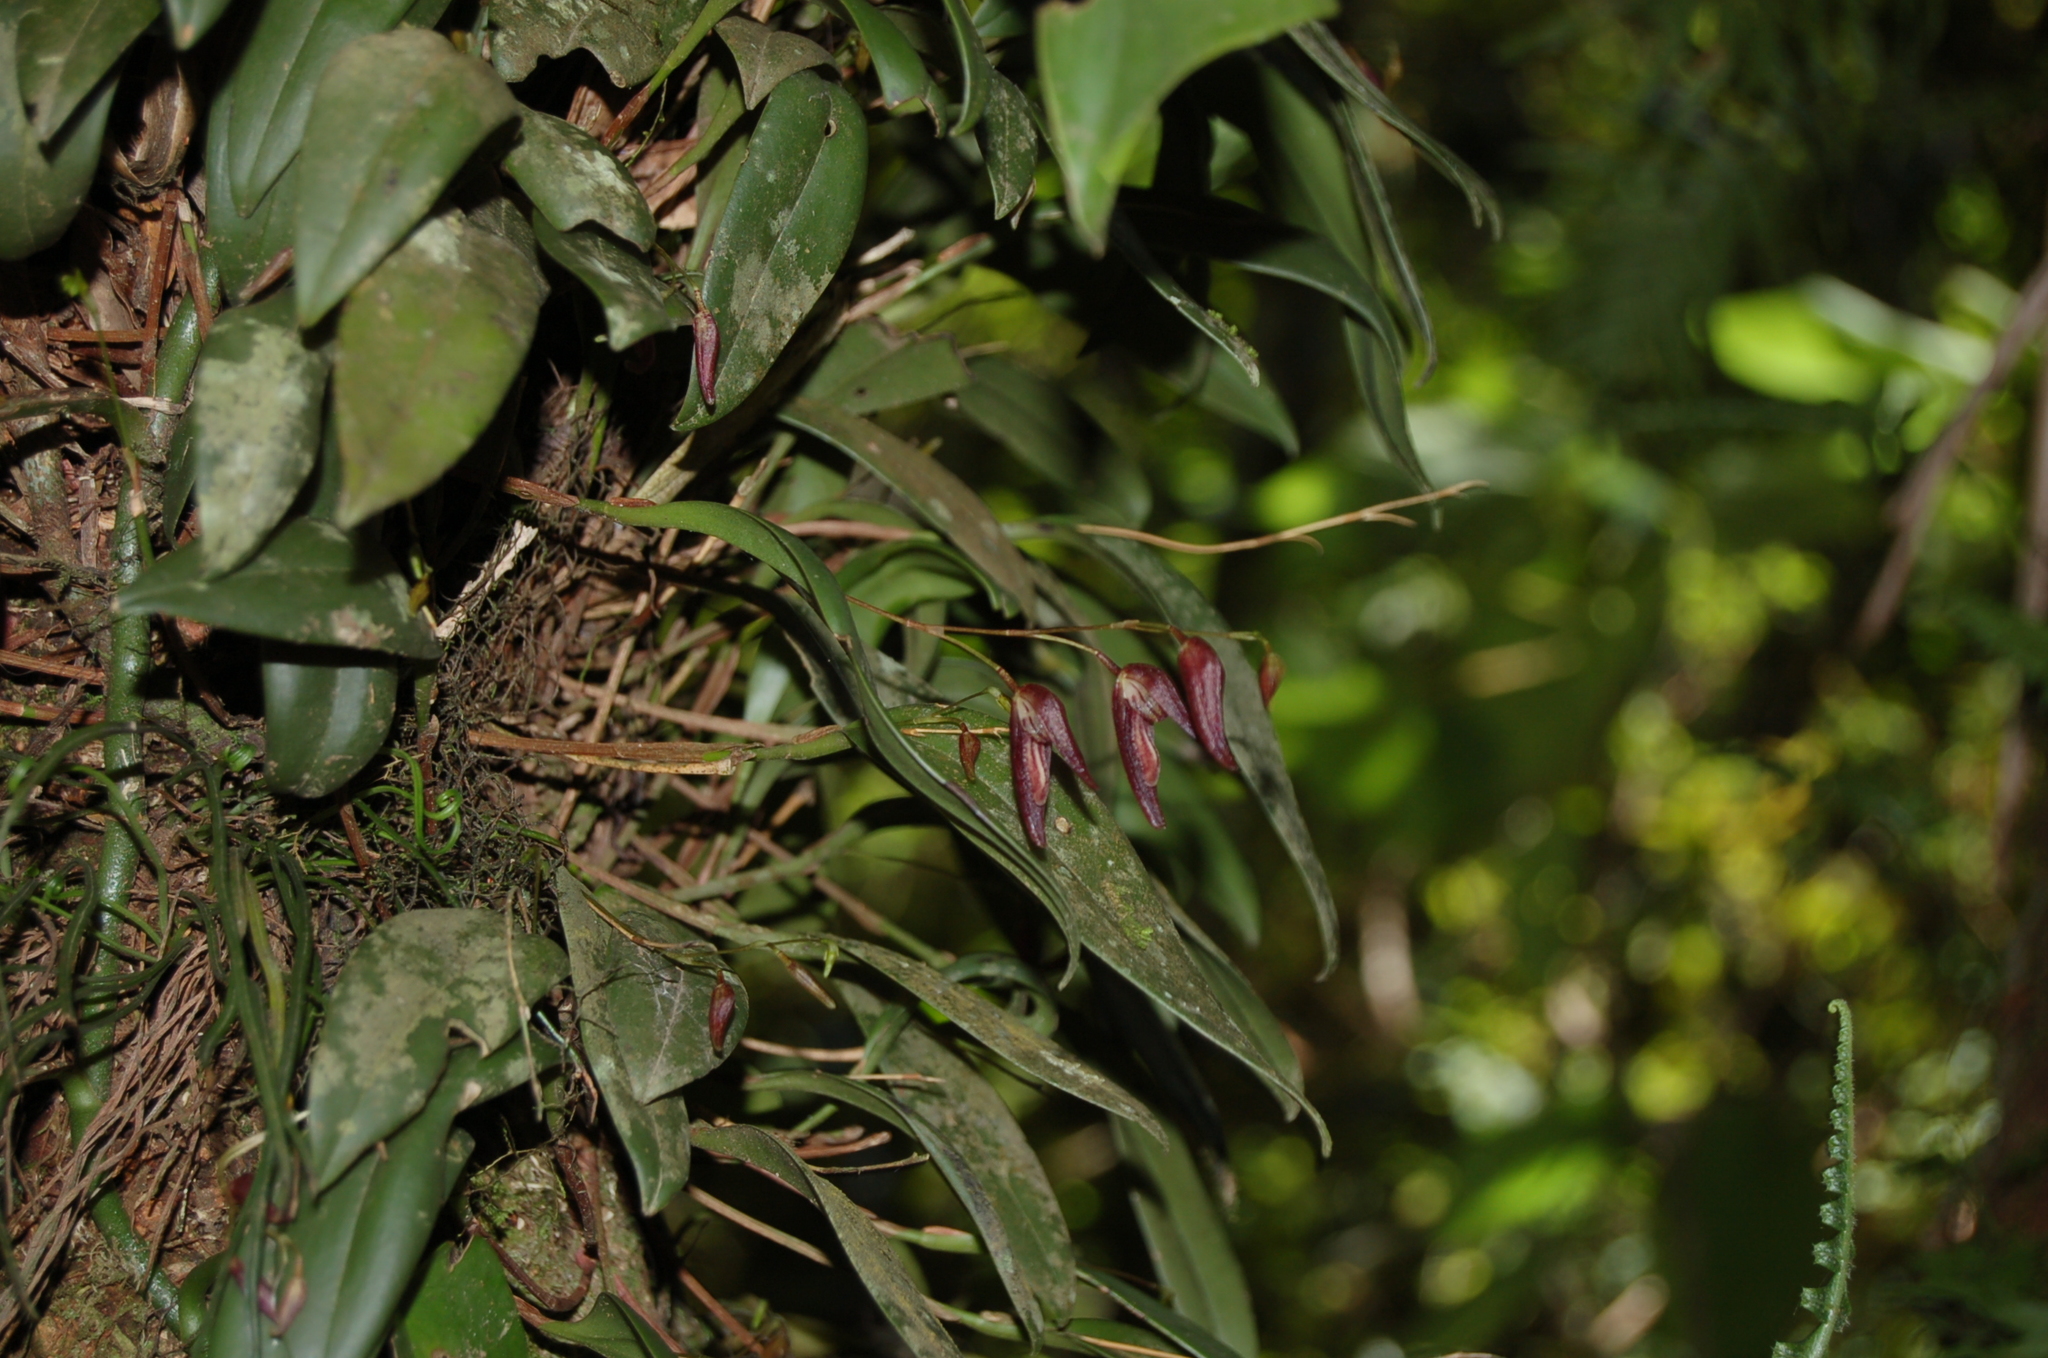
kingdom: Plantae
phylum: Tracheophyta
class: Liliopsida
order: Asparagales
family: Orchidaceae
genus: Stelis
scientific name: Stelis pachyglossa
